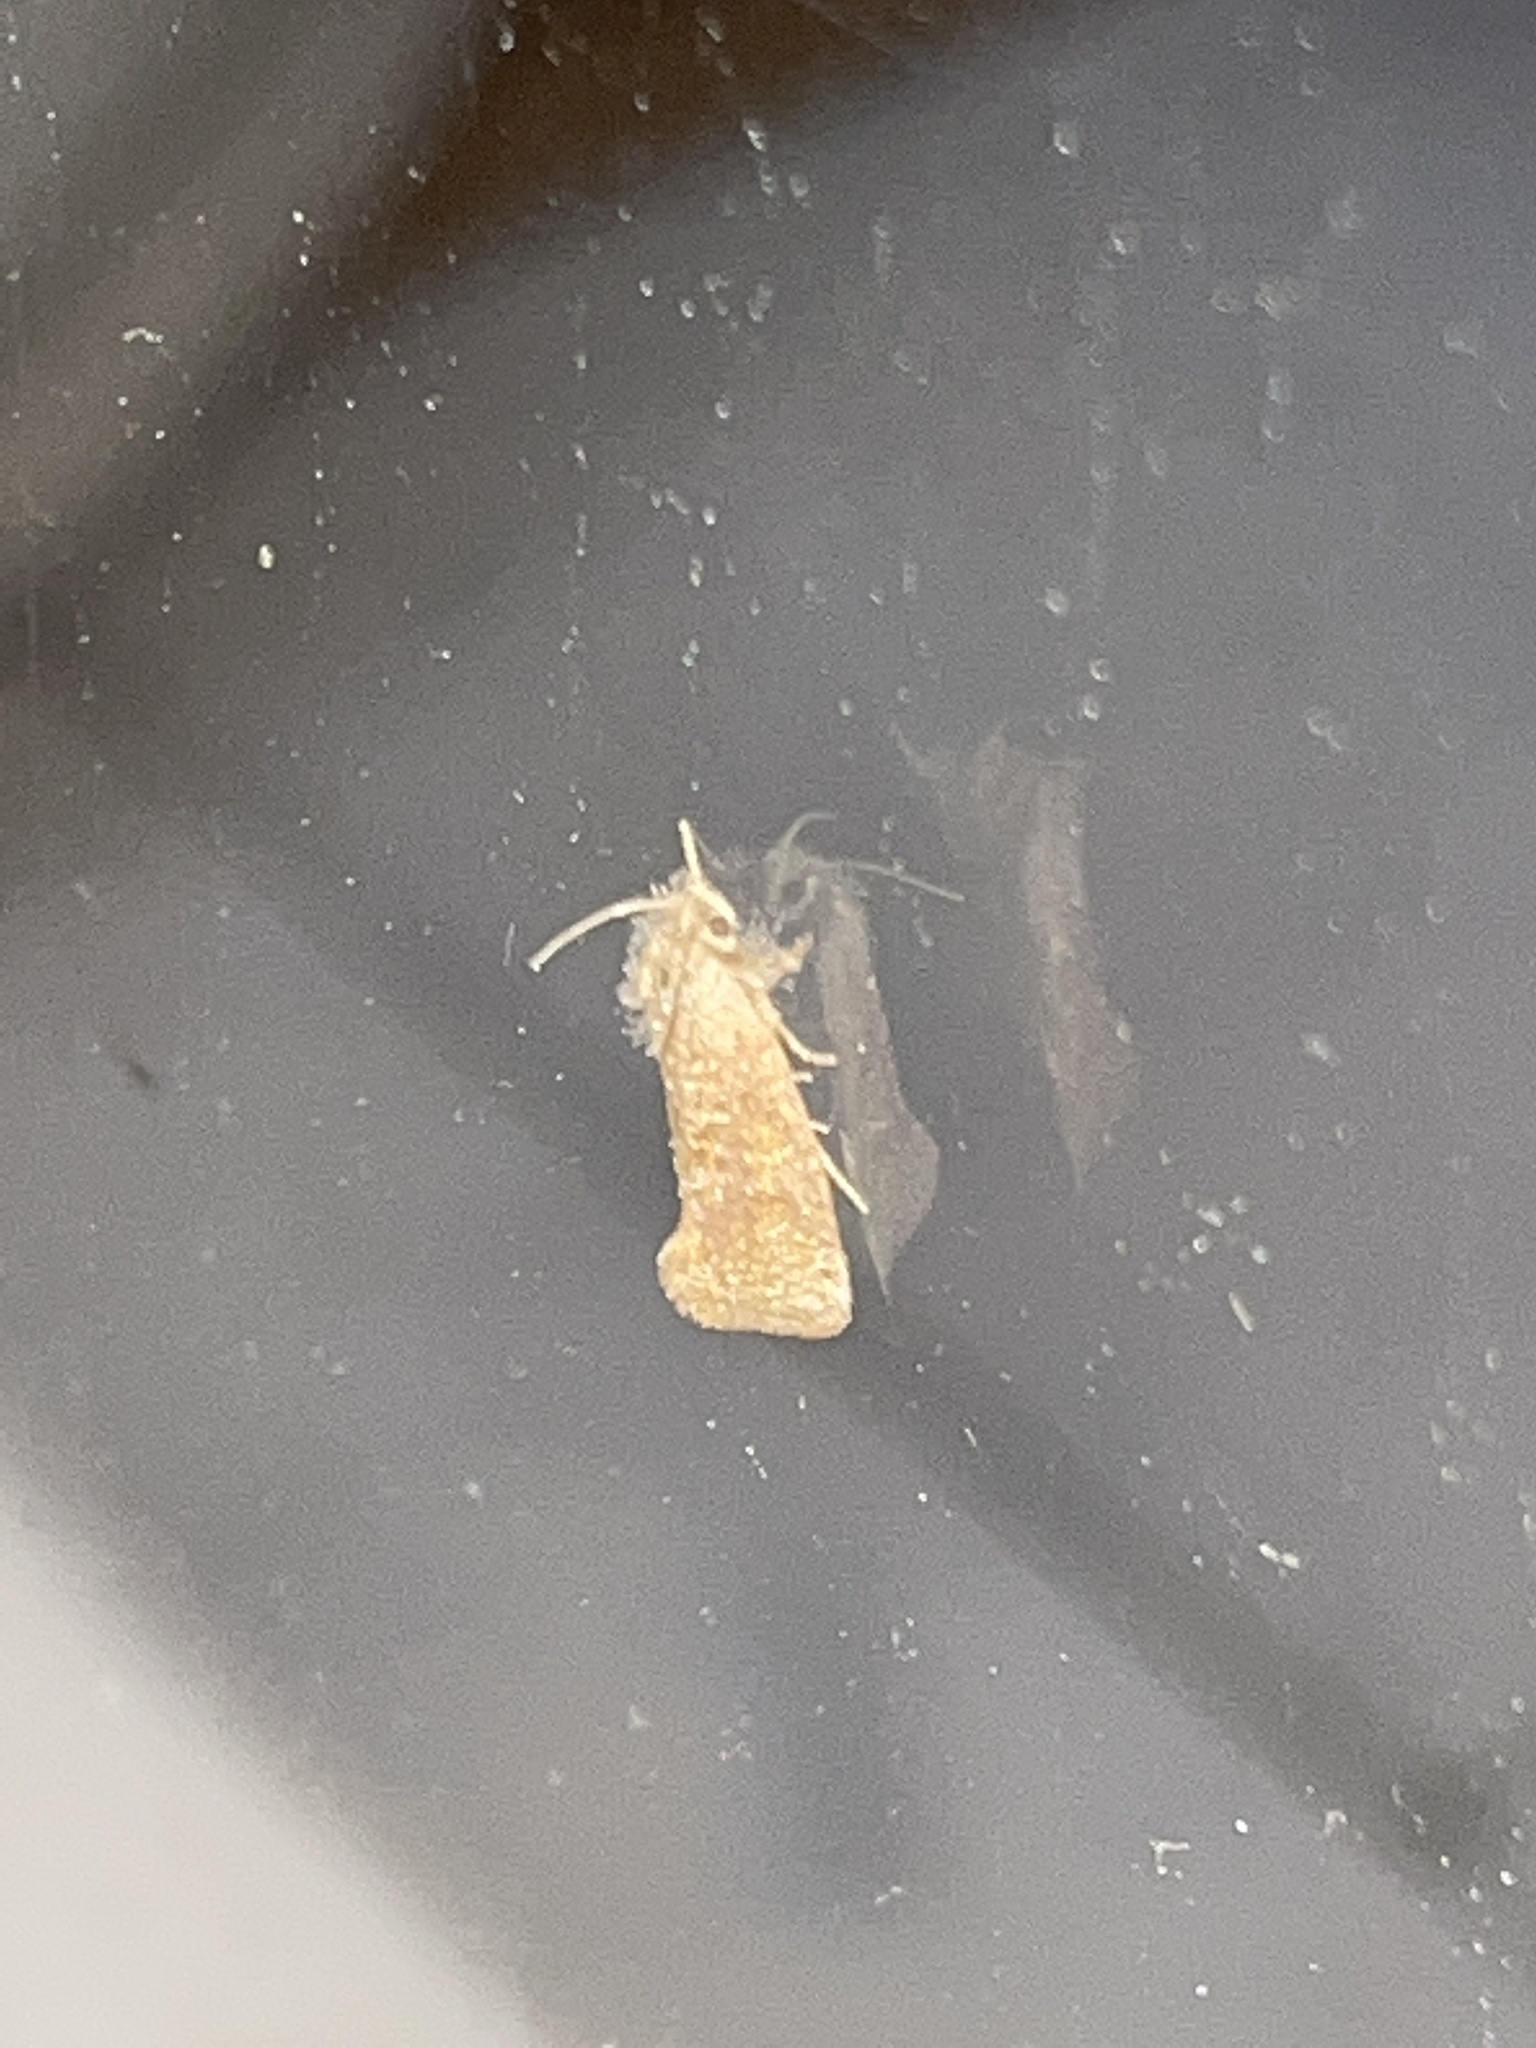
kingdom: Animalia
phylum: Arthropoda
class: Insecta
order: Lepidoptera
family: Tineidae
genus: Acrolophus
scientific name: Acrolophus heppneri
